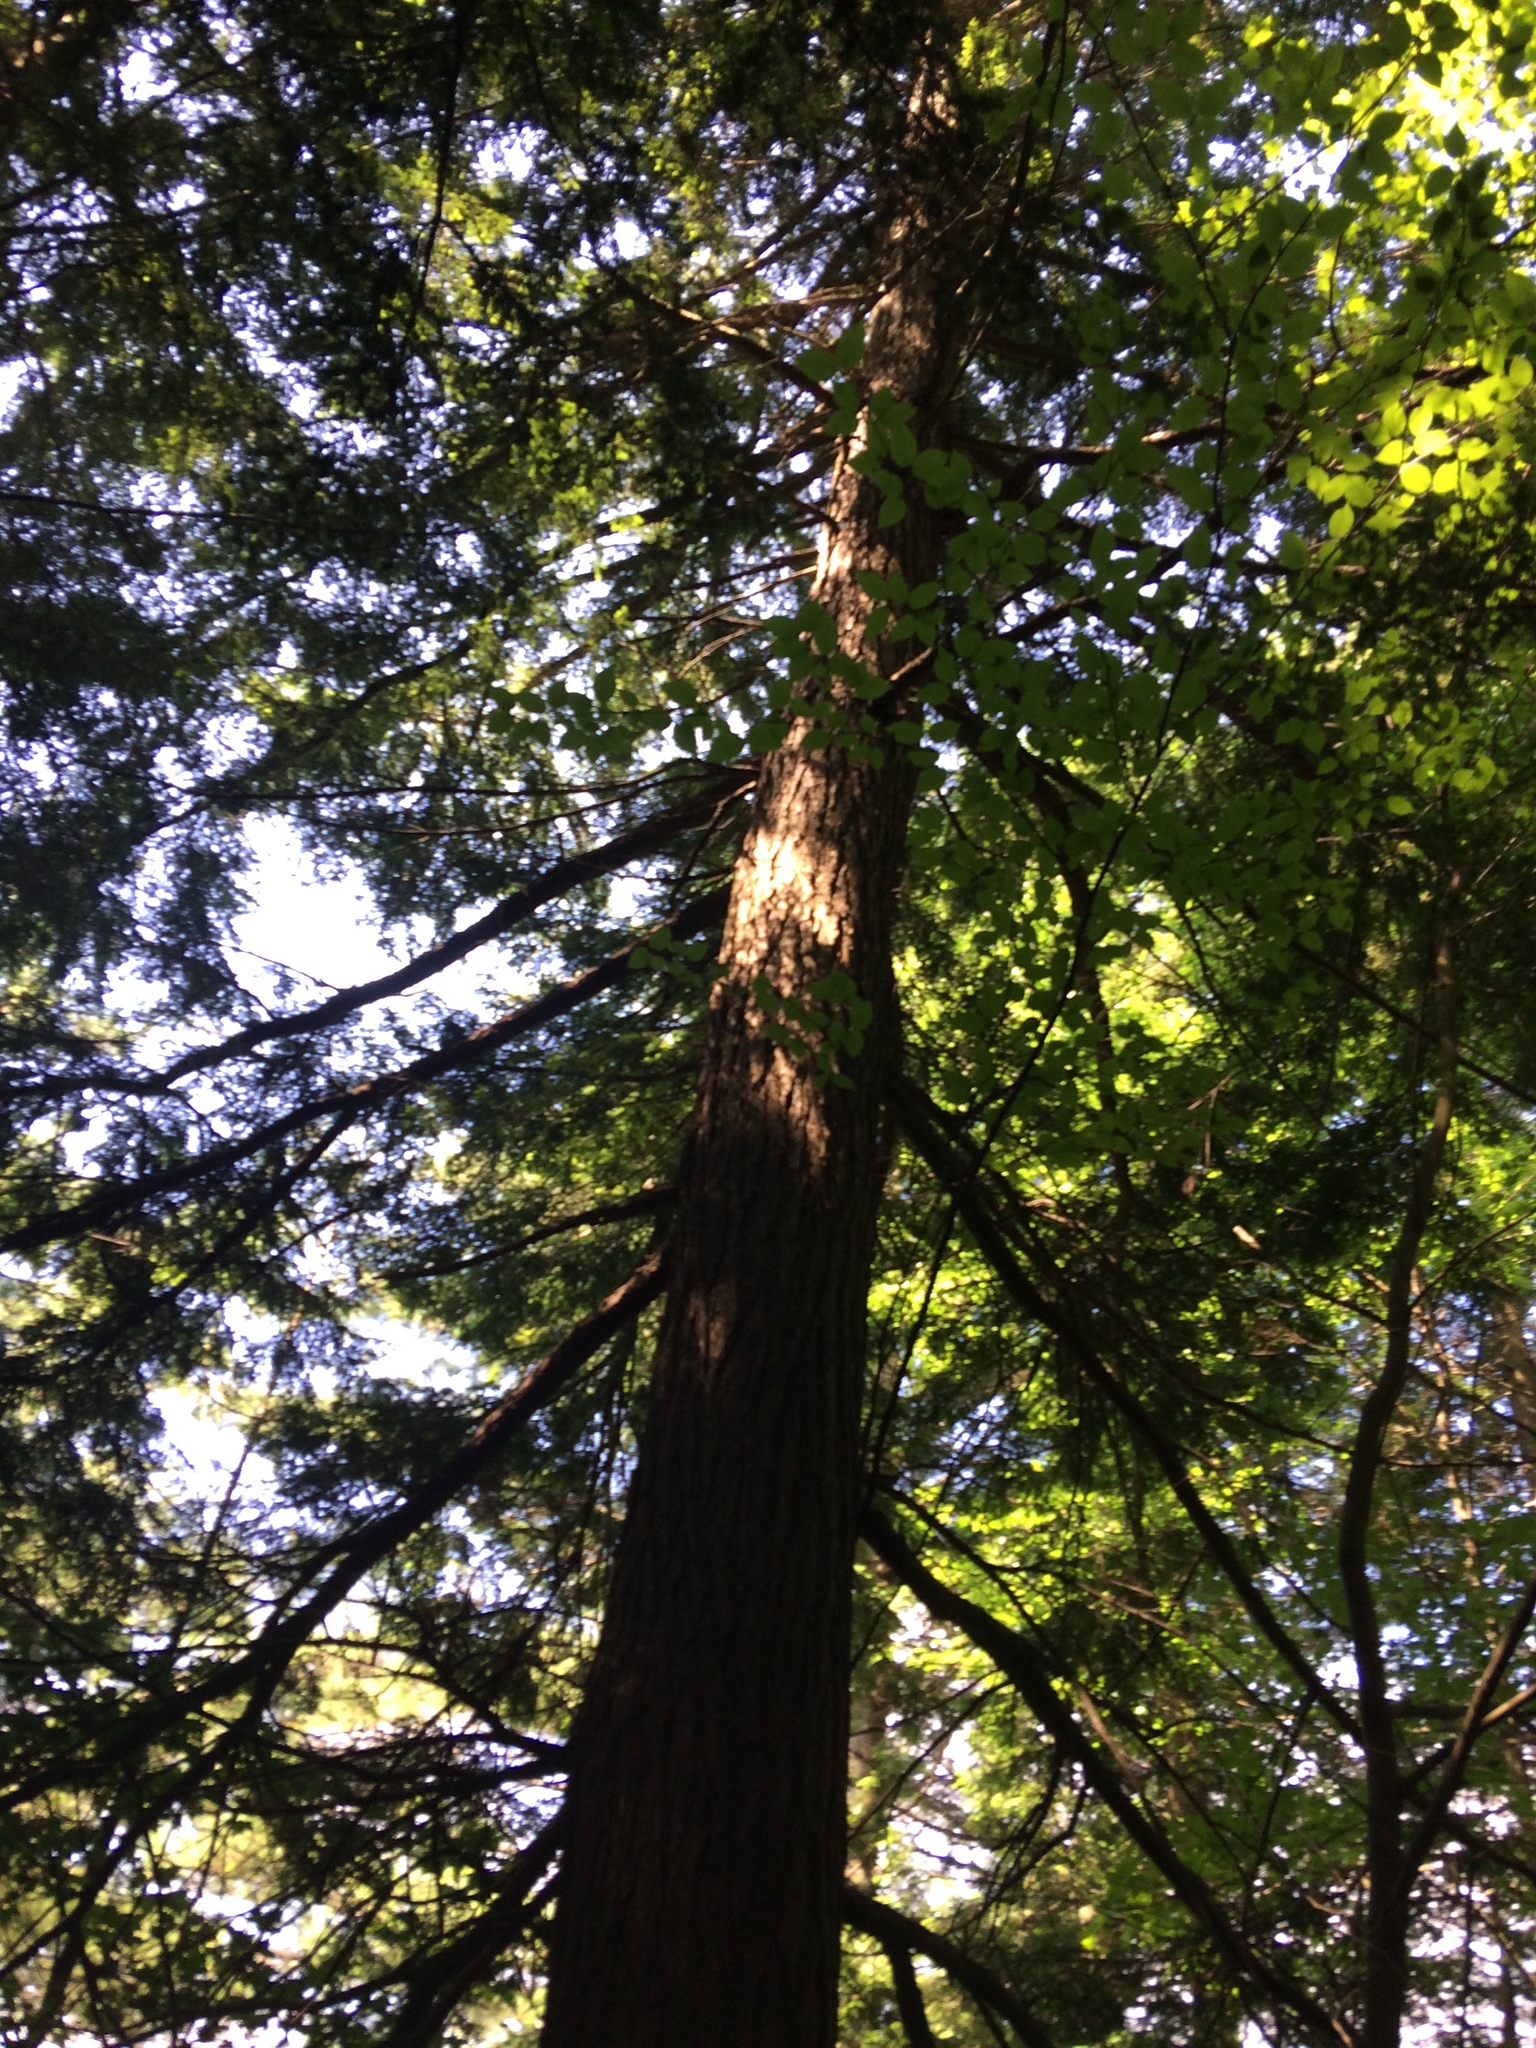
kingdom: Plantae
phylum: Tracheophyta
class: Pinopsida
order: Pinales
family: Pinaceae
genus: Tsuga
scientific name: Tsuga canadensis
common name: Eastern hemlock
